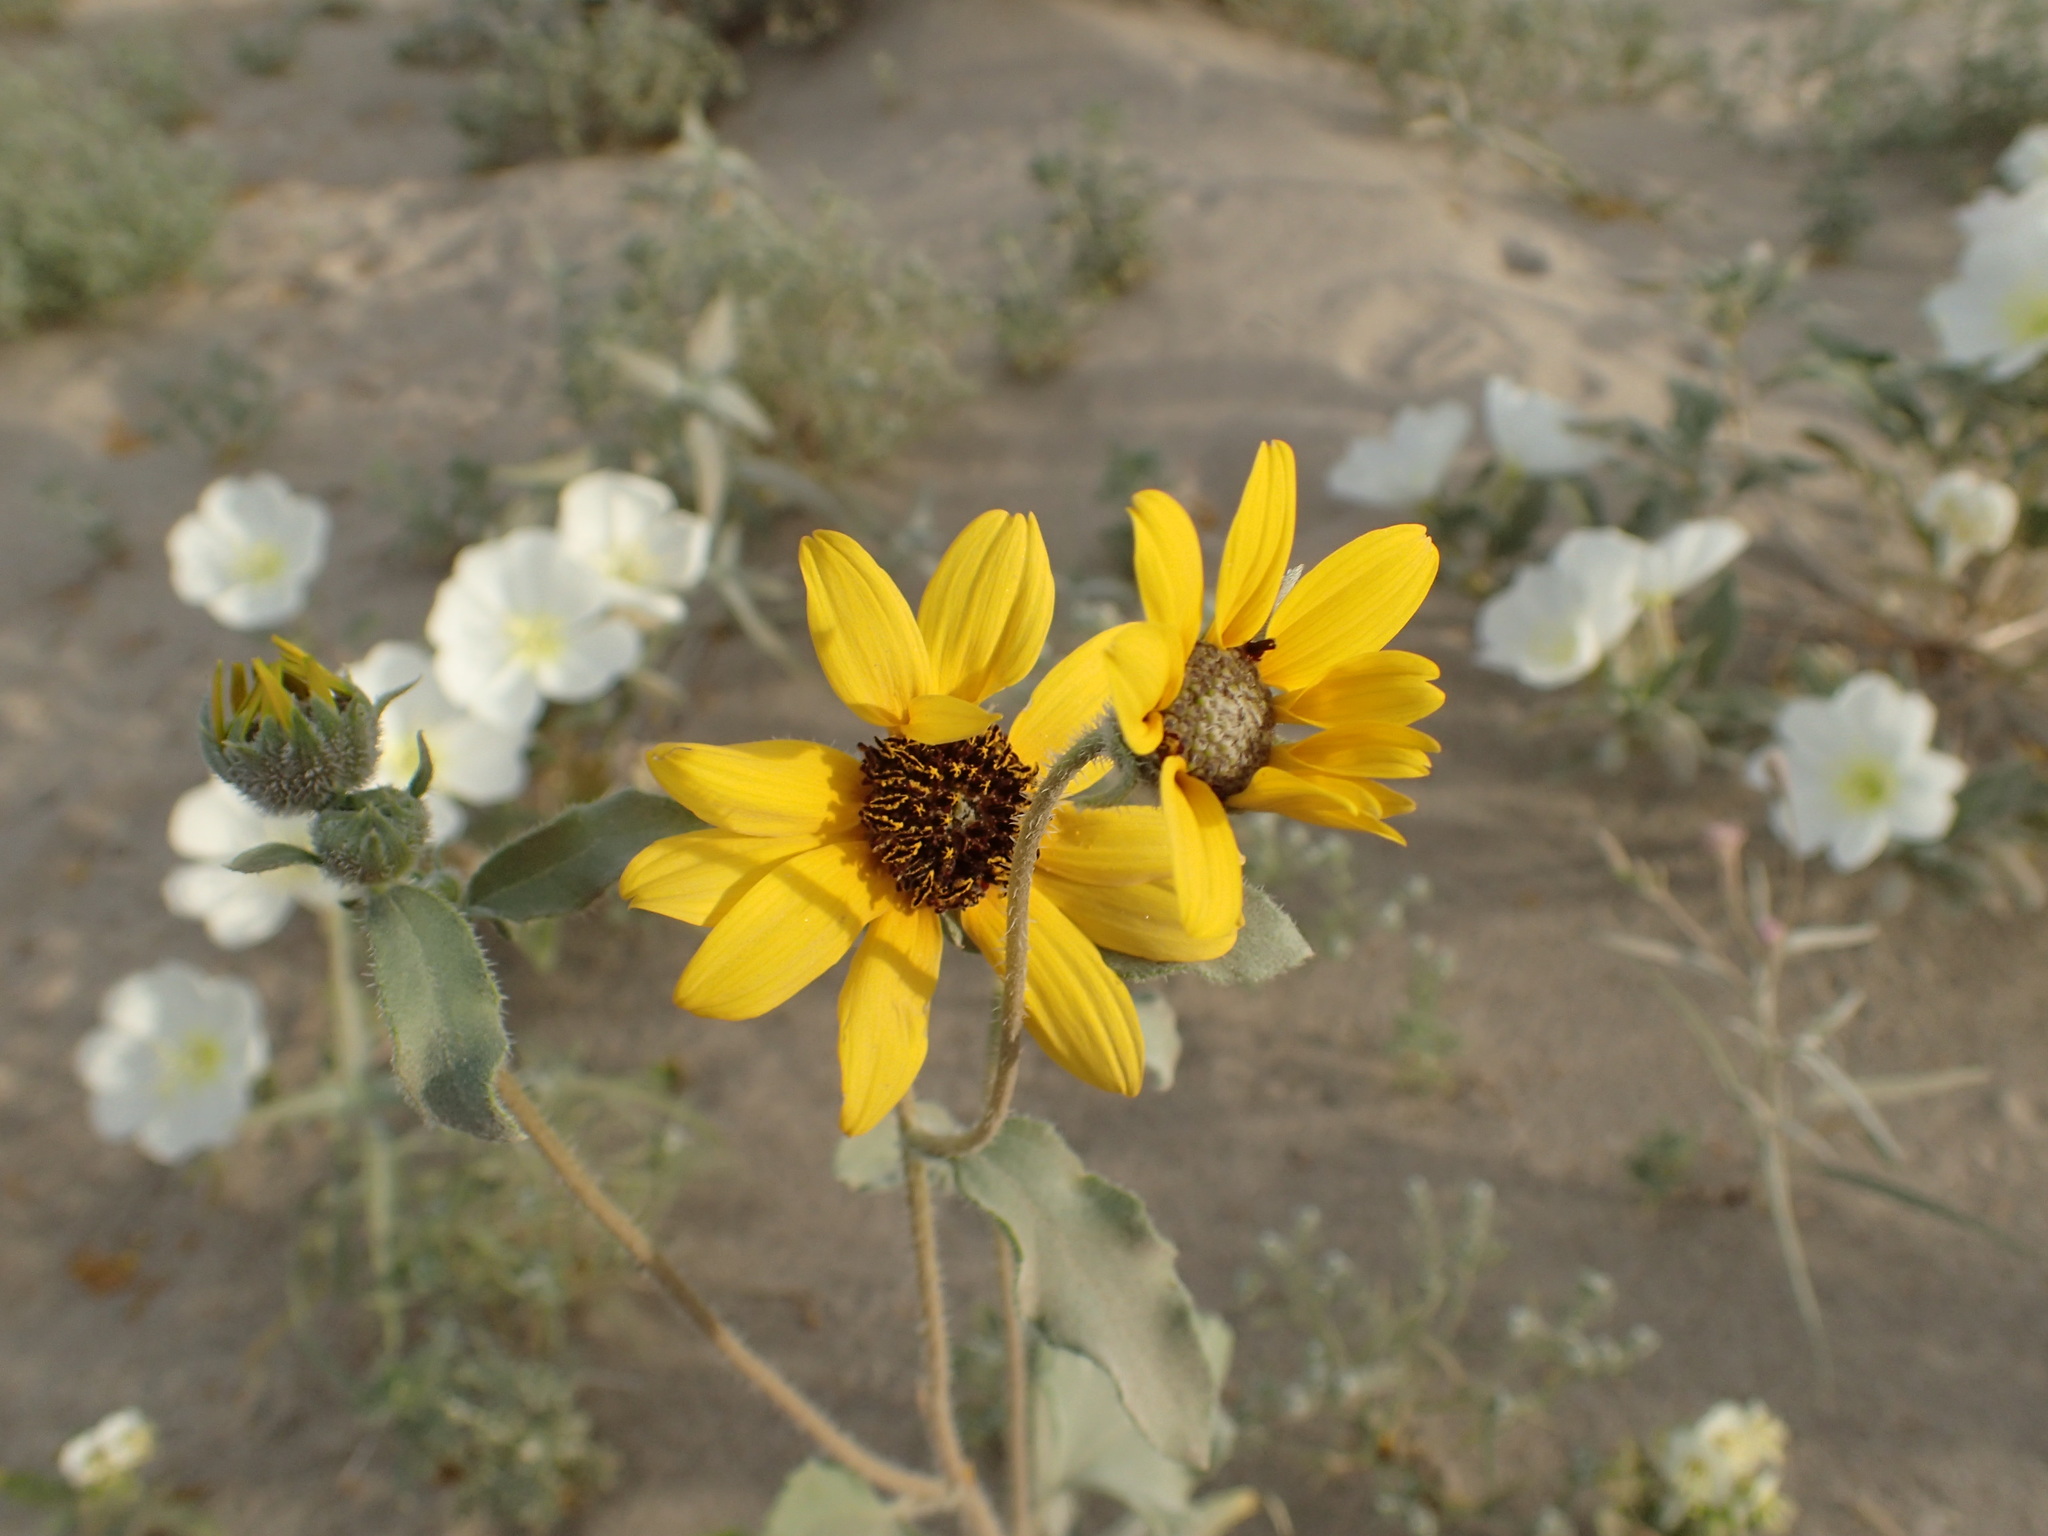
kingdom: Plantae
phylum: Tracheophyta
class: Magnoliopsida
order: Asterales
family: Asteraceae
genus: Helianthus
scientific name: Helianthus petiolaris
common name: Lesser sunflower
